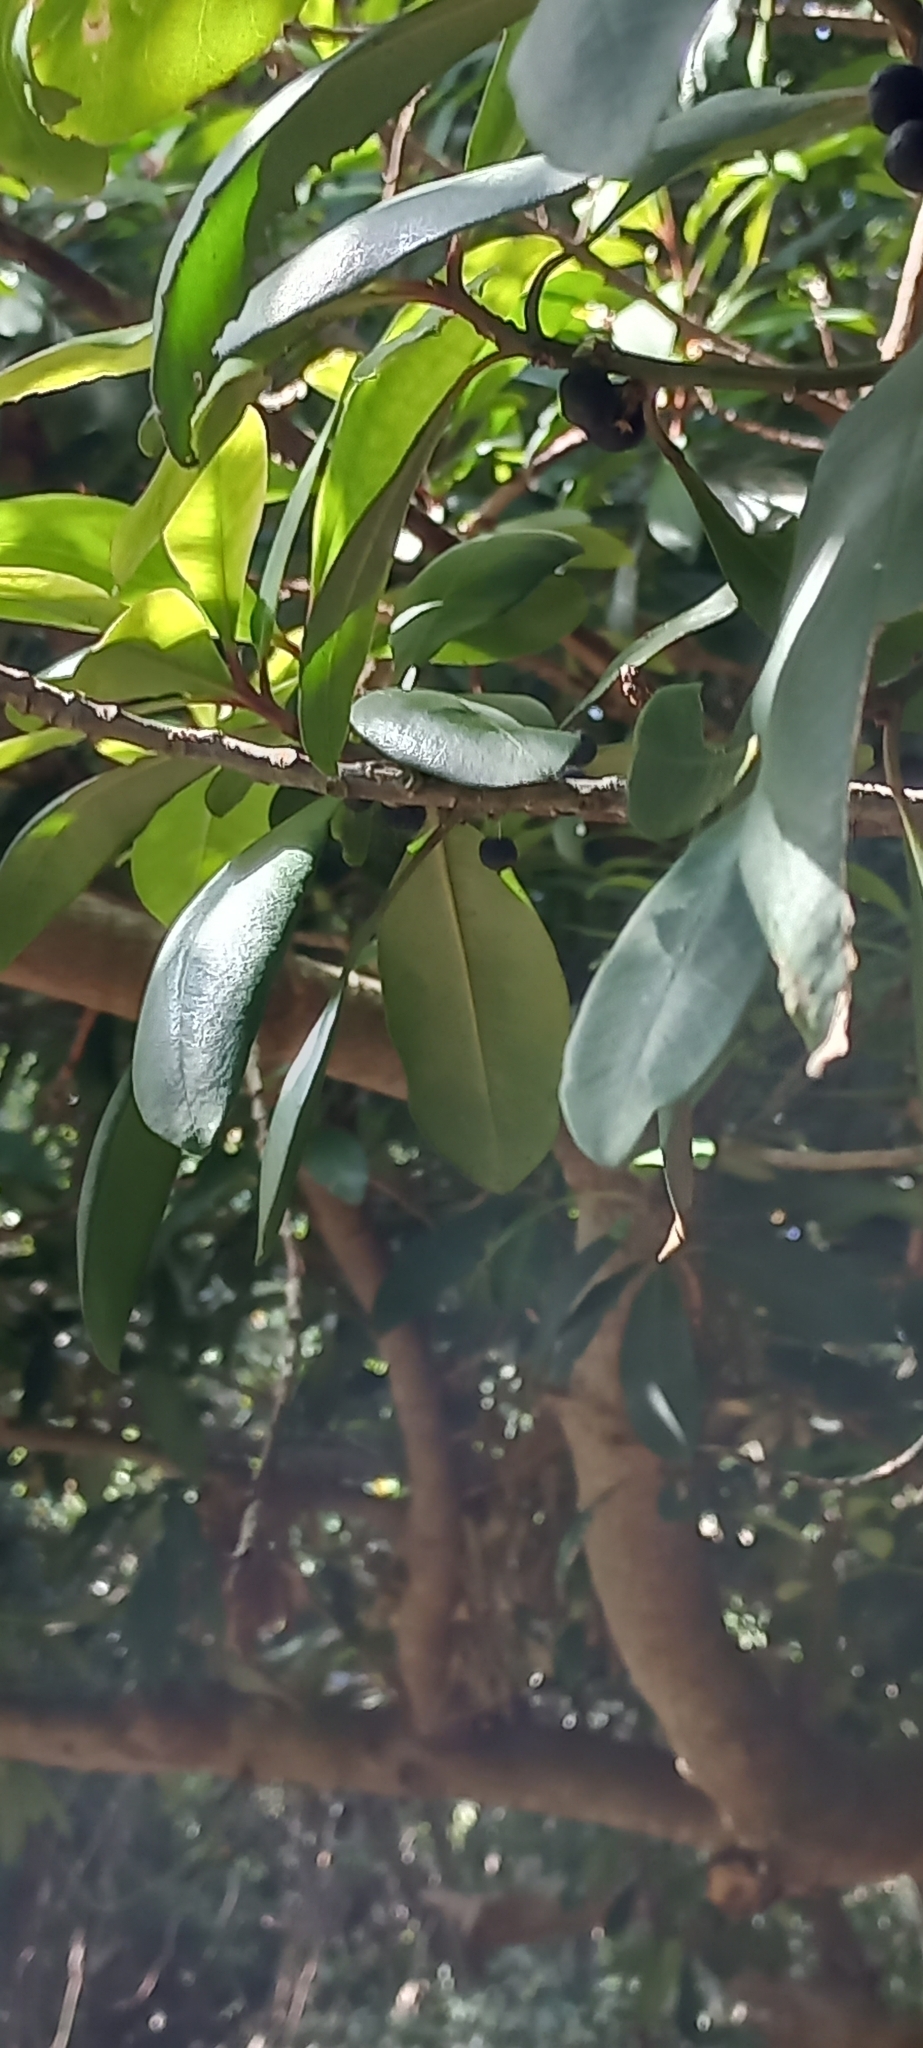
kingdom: Plantae
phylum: Tracheophyta
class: Magnoliopsida
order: Ericales
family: Primulaceae
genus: Myrsine
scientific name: Myrsine melanophloeos
